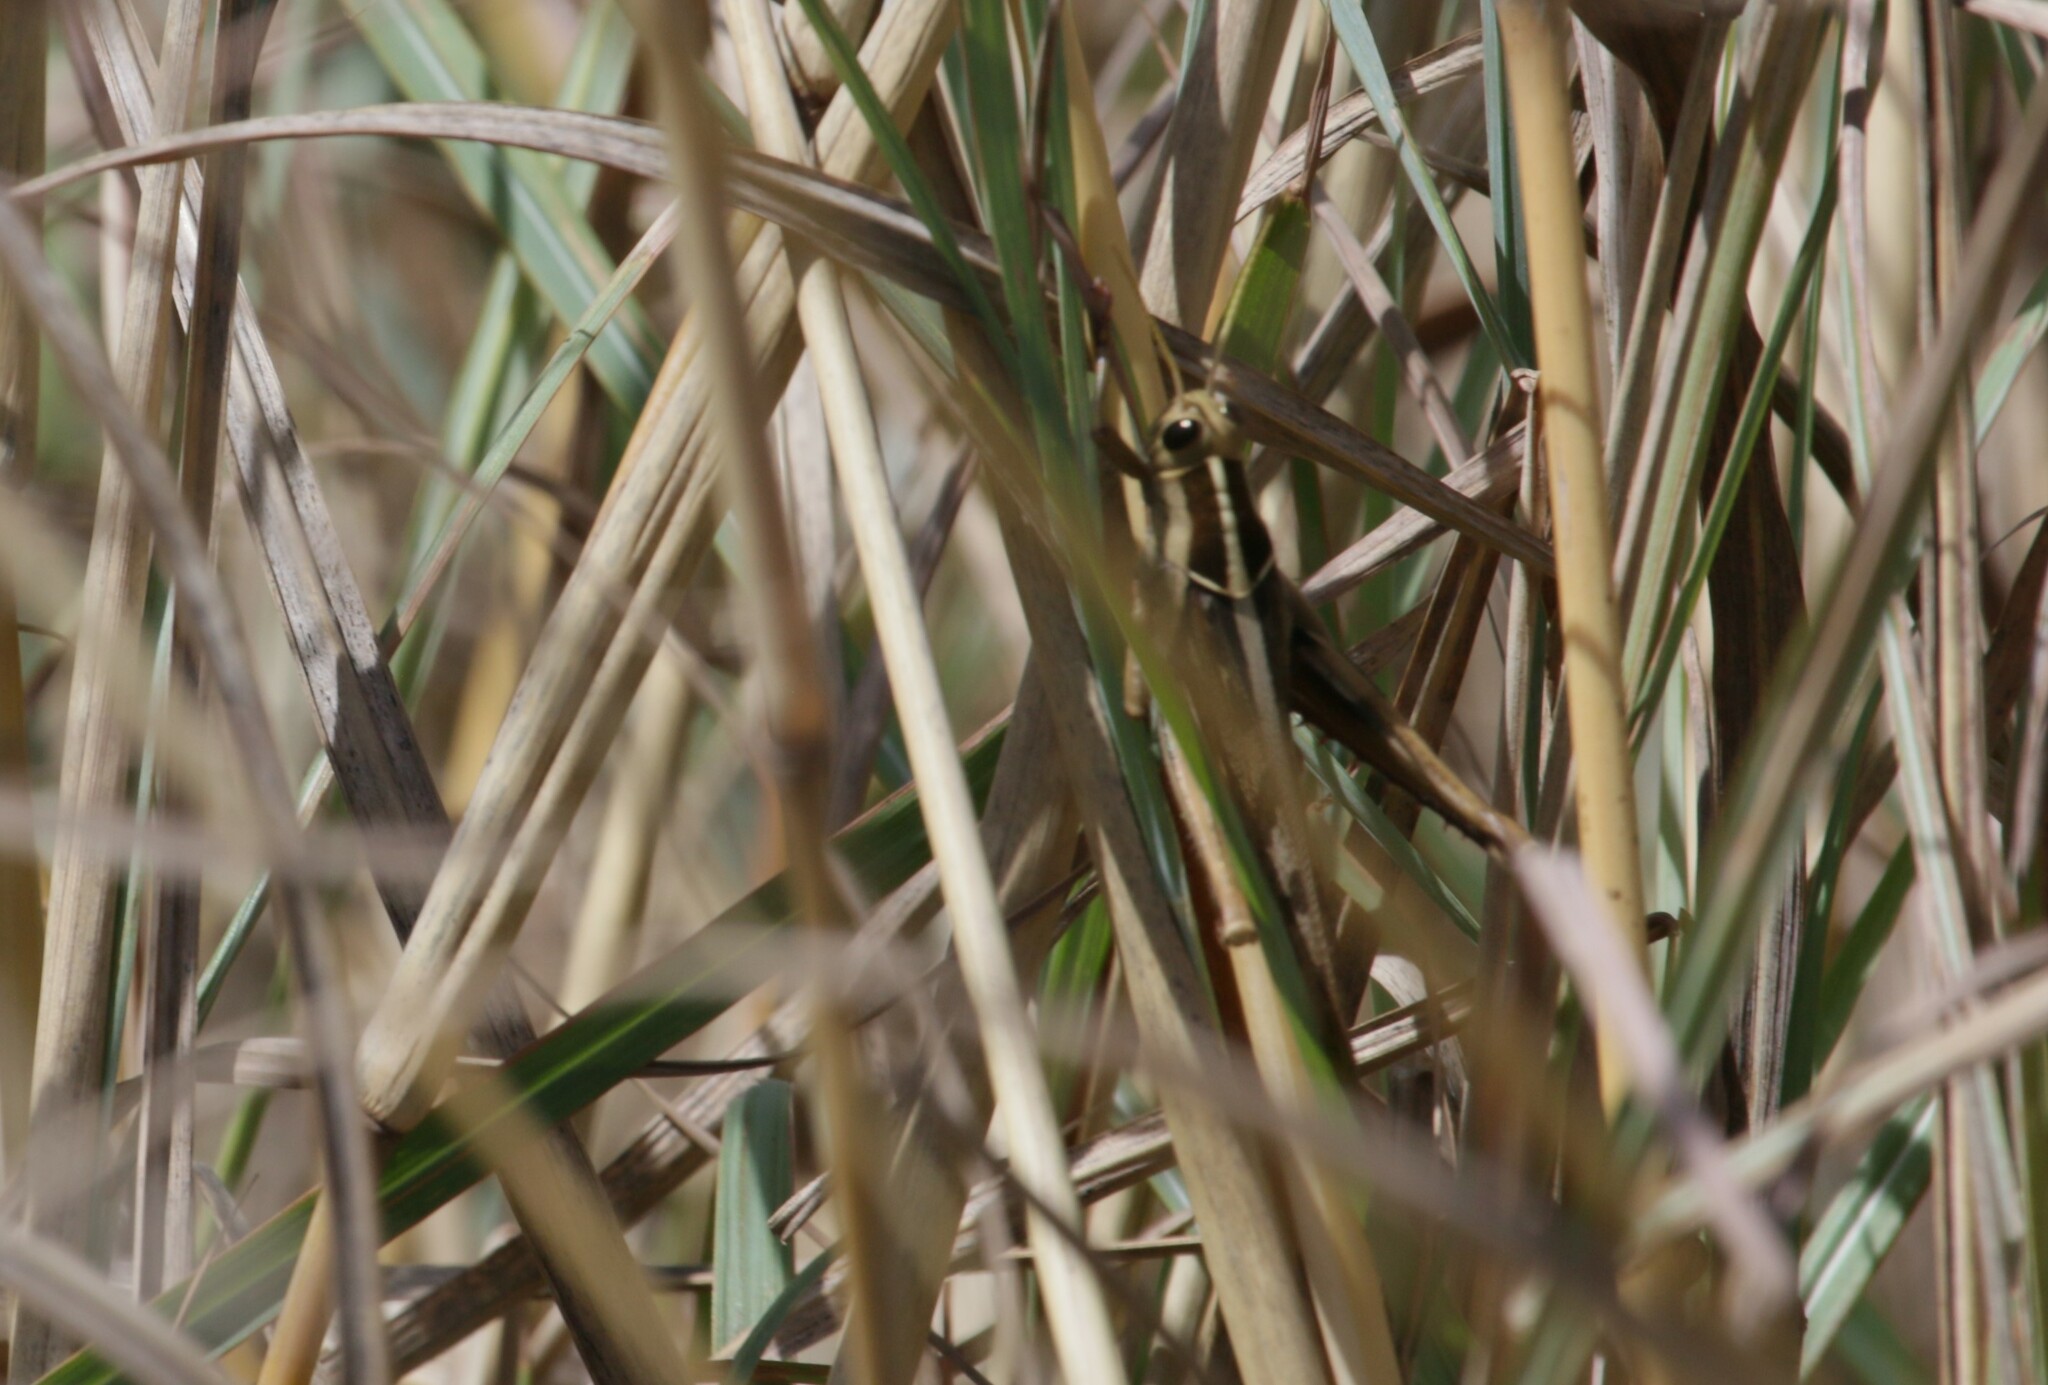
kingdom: Animalia
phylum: Arthropoda
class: Insecta
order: Orthoptera
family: Acrididae
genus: Acanthacris
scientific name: Acanthacris ruficornis
